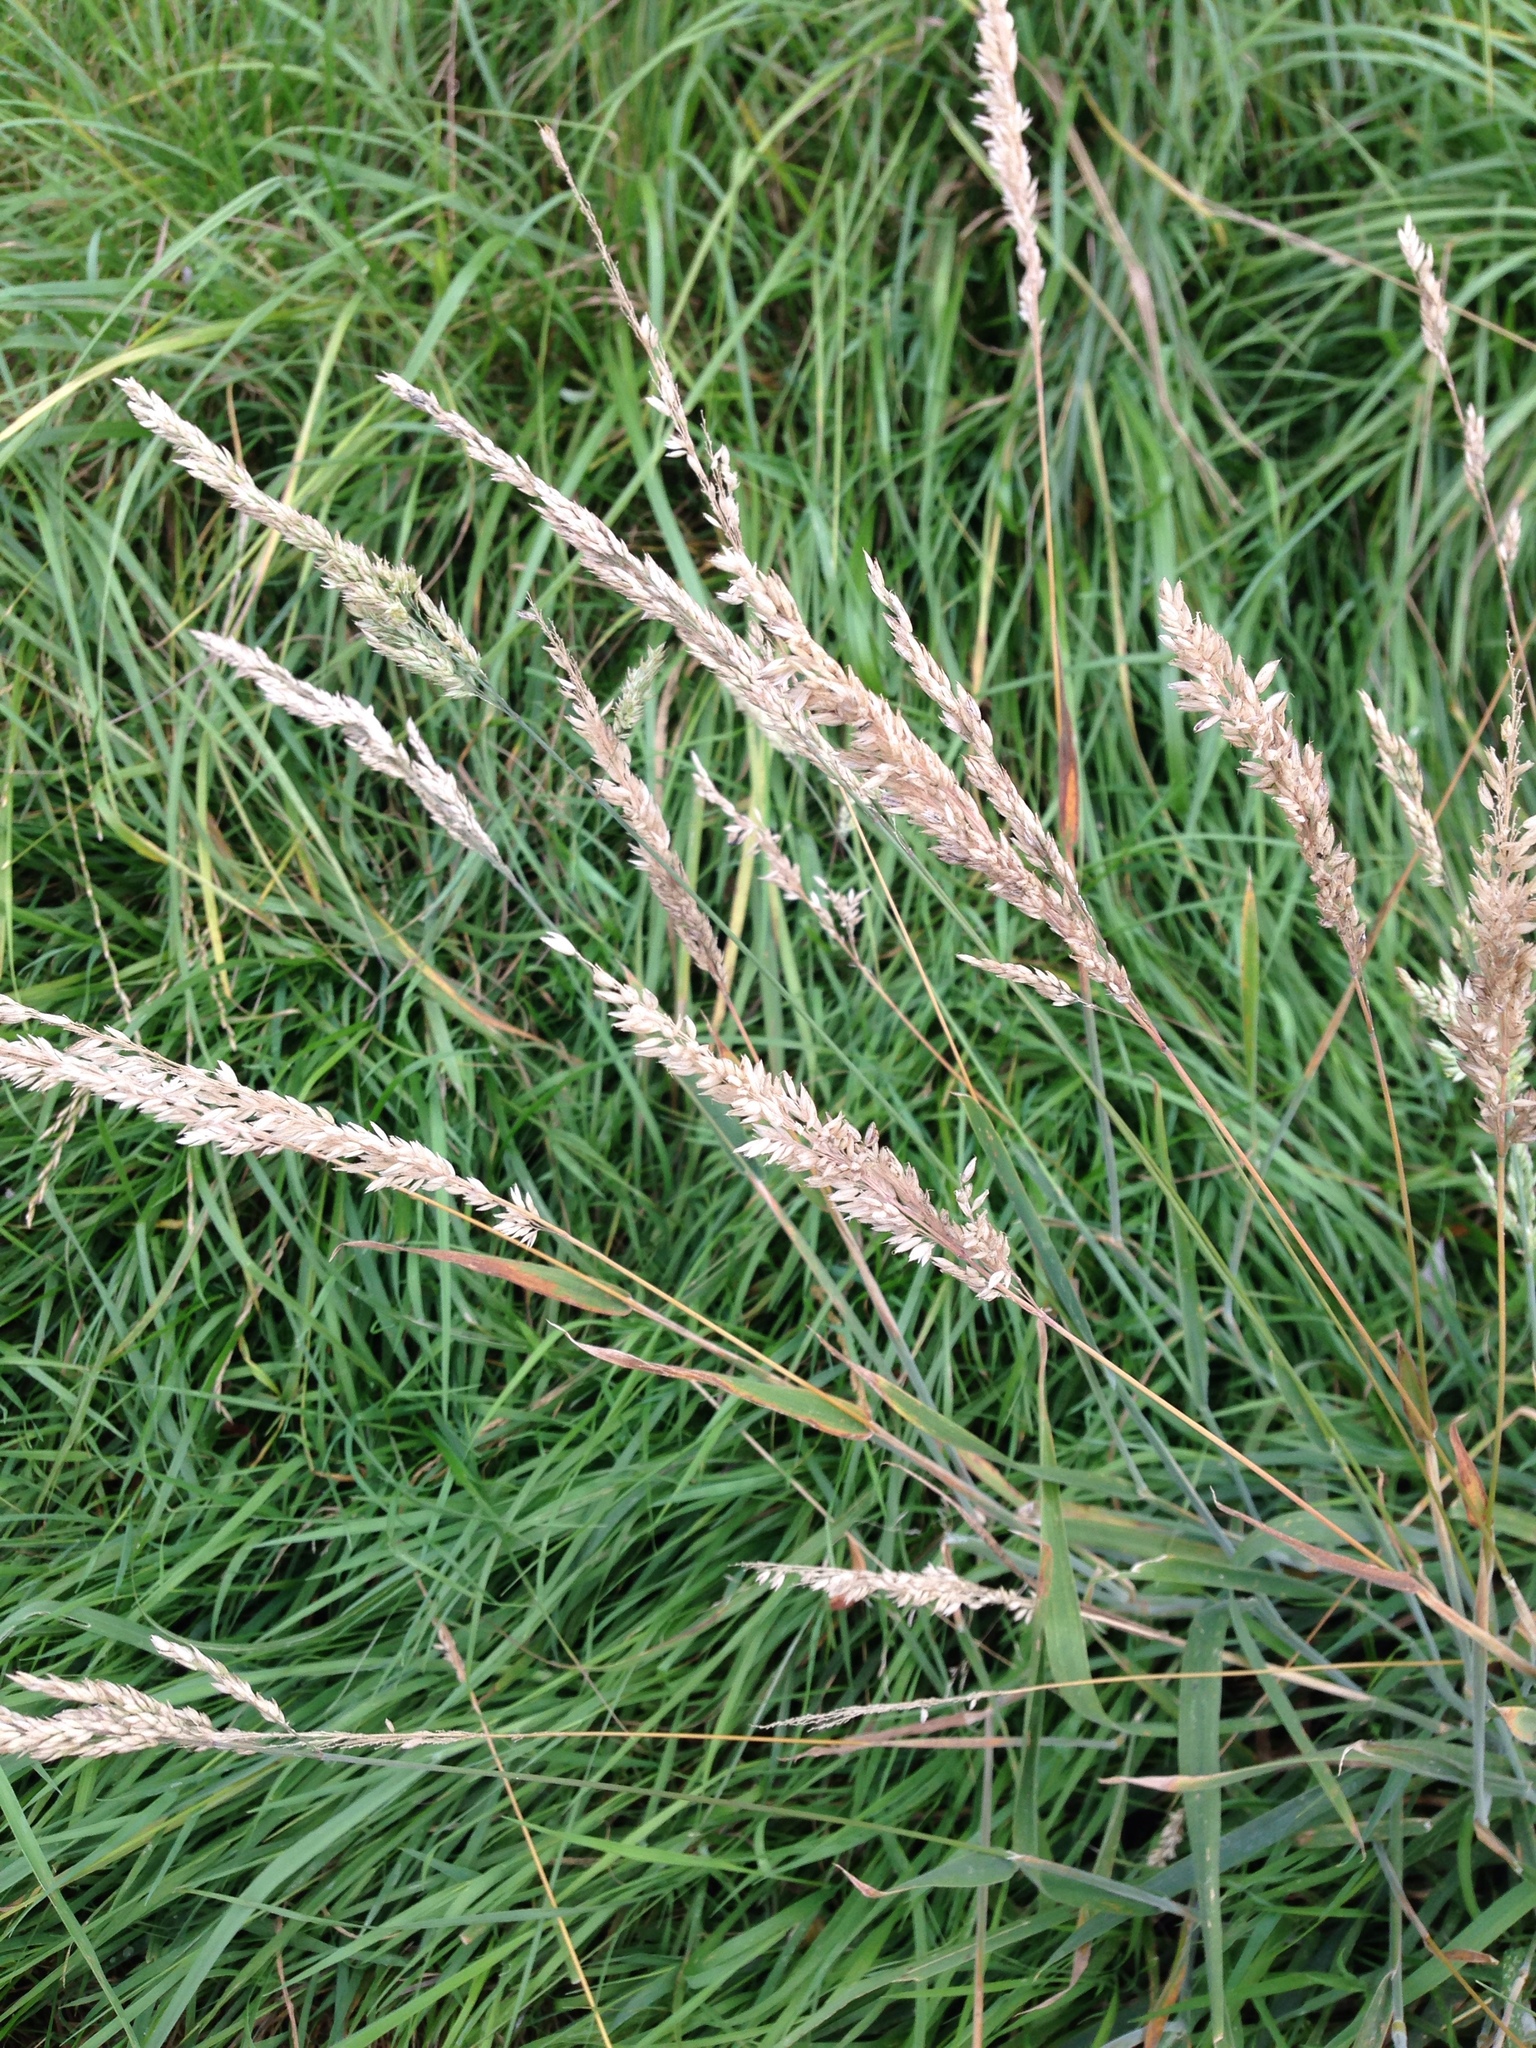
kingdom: Plantae
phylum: Tracheophyta
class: Liliopsida
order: Poales
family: Poaceae
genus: Holcus
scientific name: Holcus lanatus
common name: Yorkshire-fog
